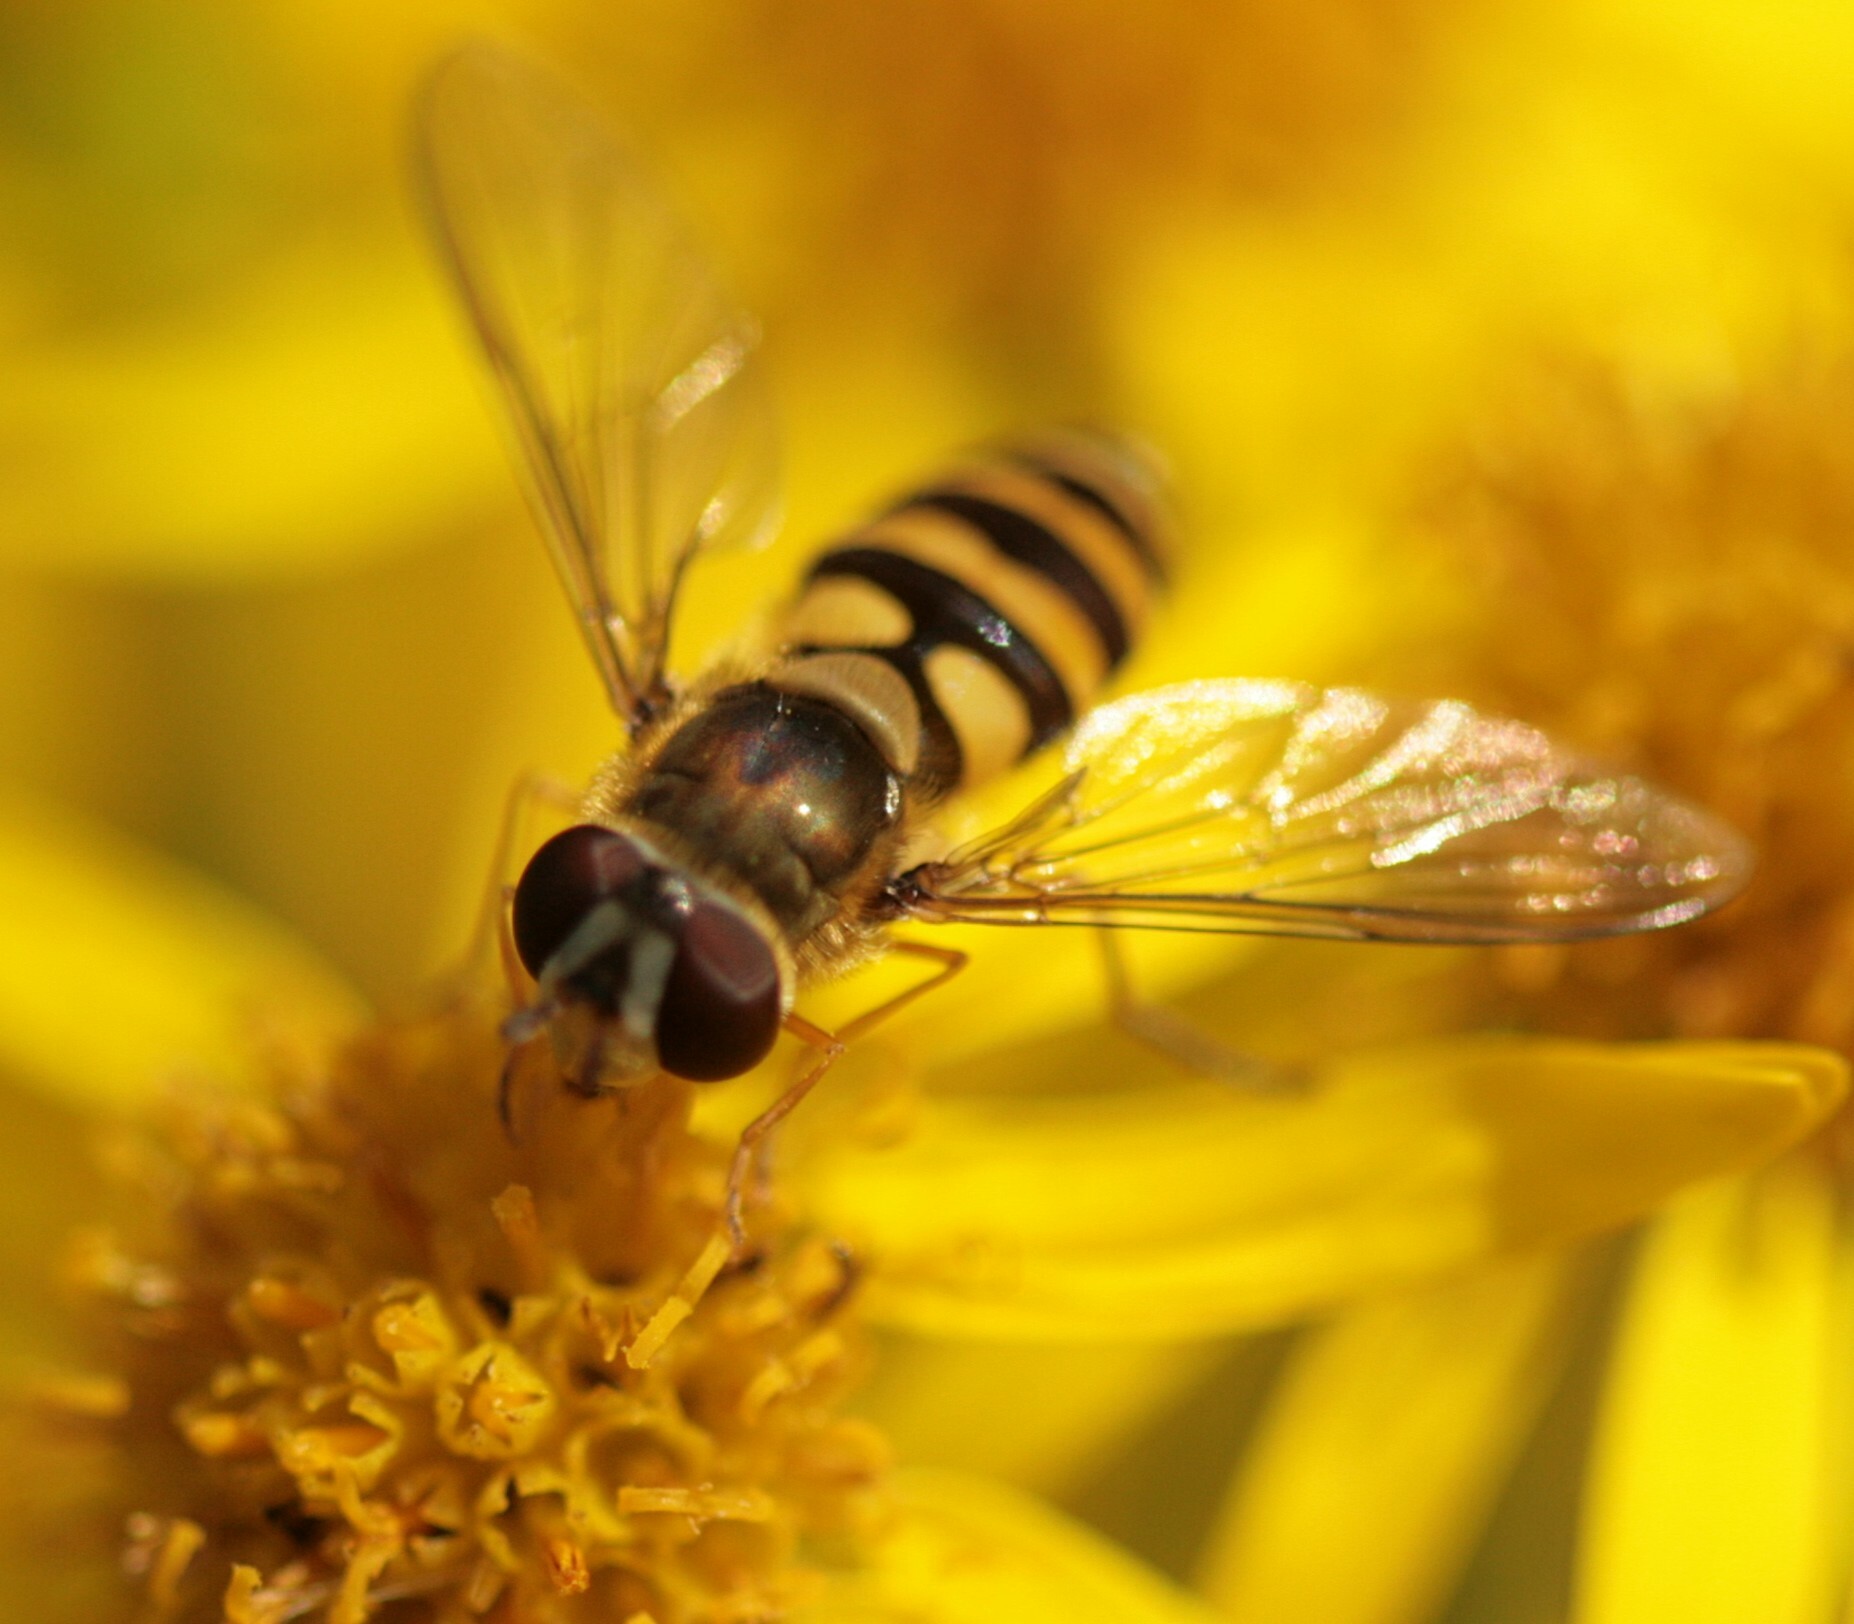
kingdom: Animalia
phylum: Arthropoda
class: Insecta
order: Diptera
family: Syrphidae
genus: Syrphus
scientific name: Syrphus
